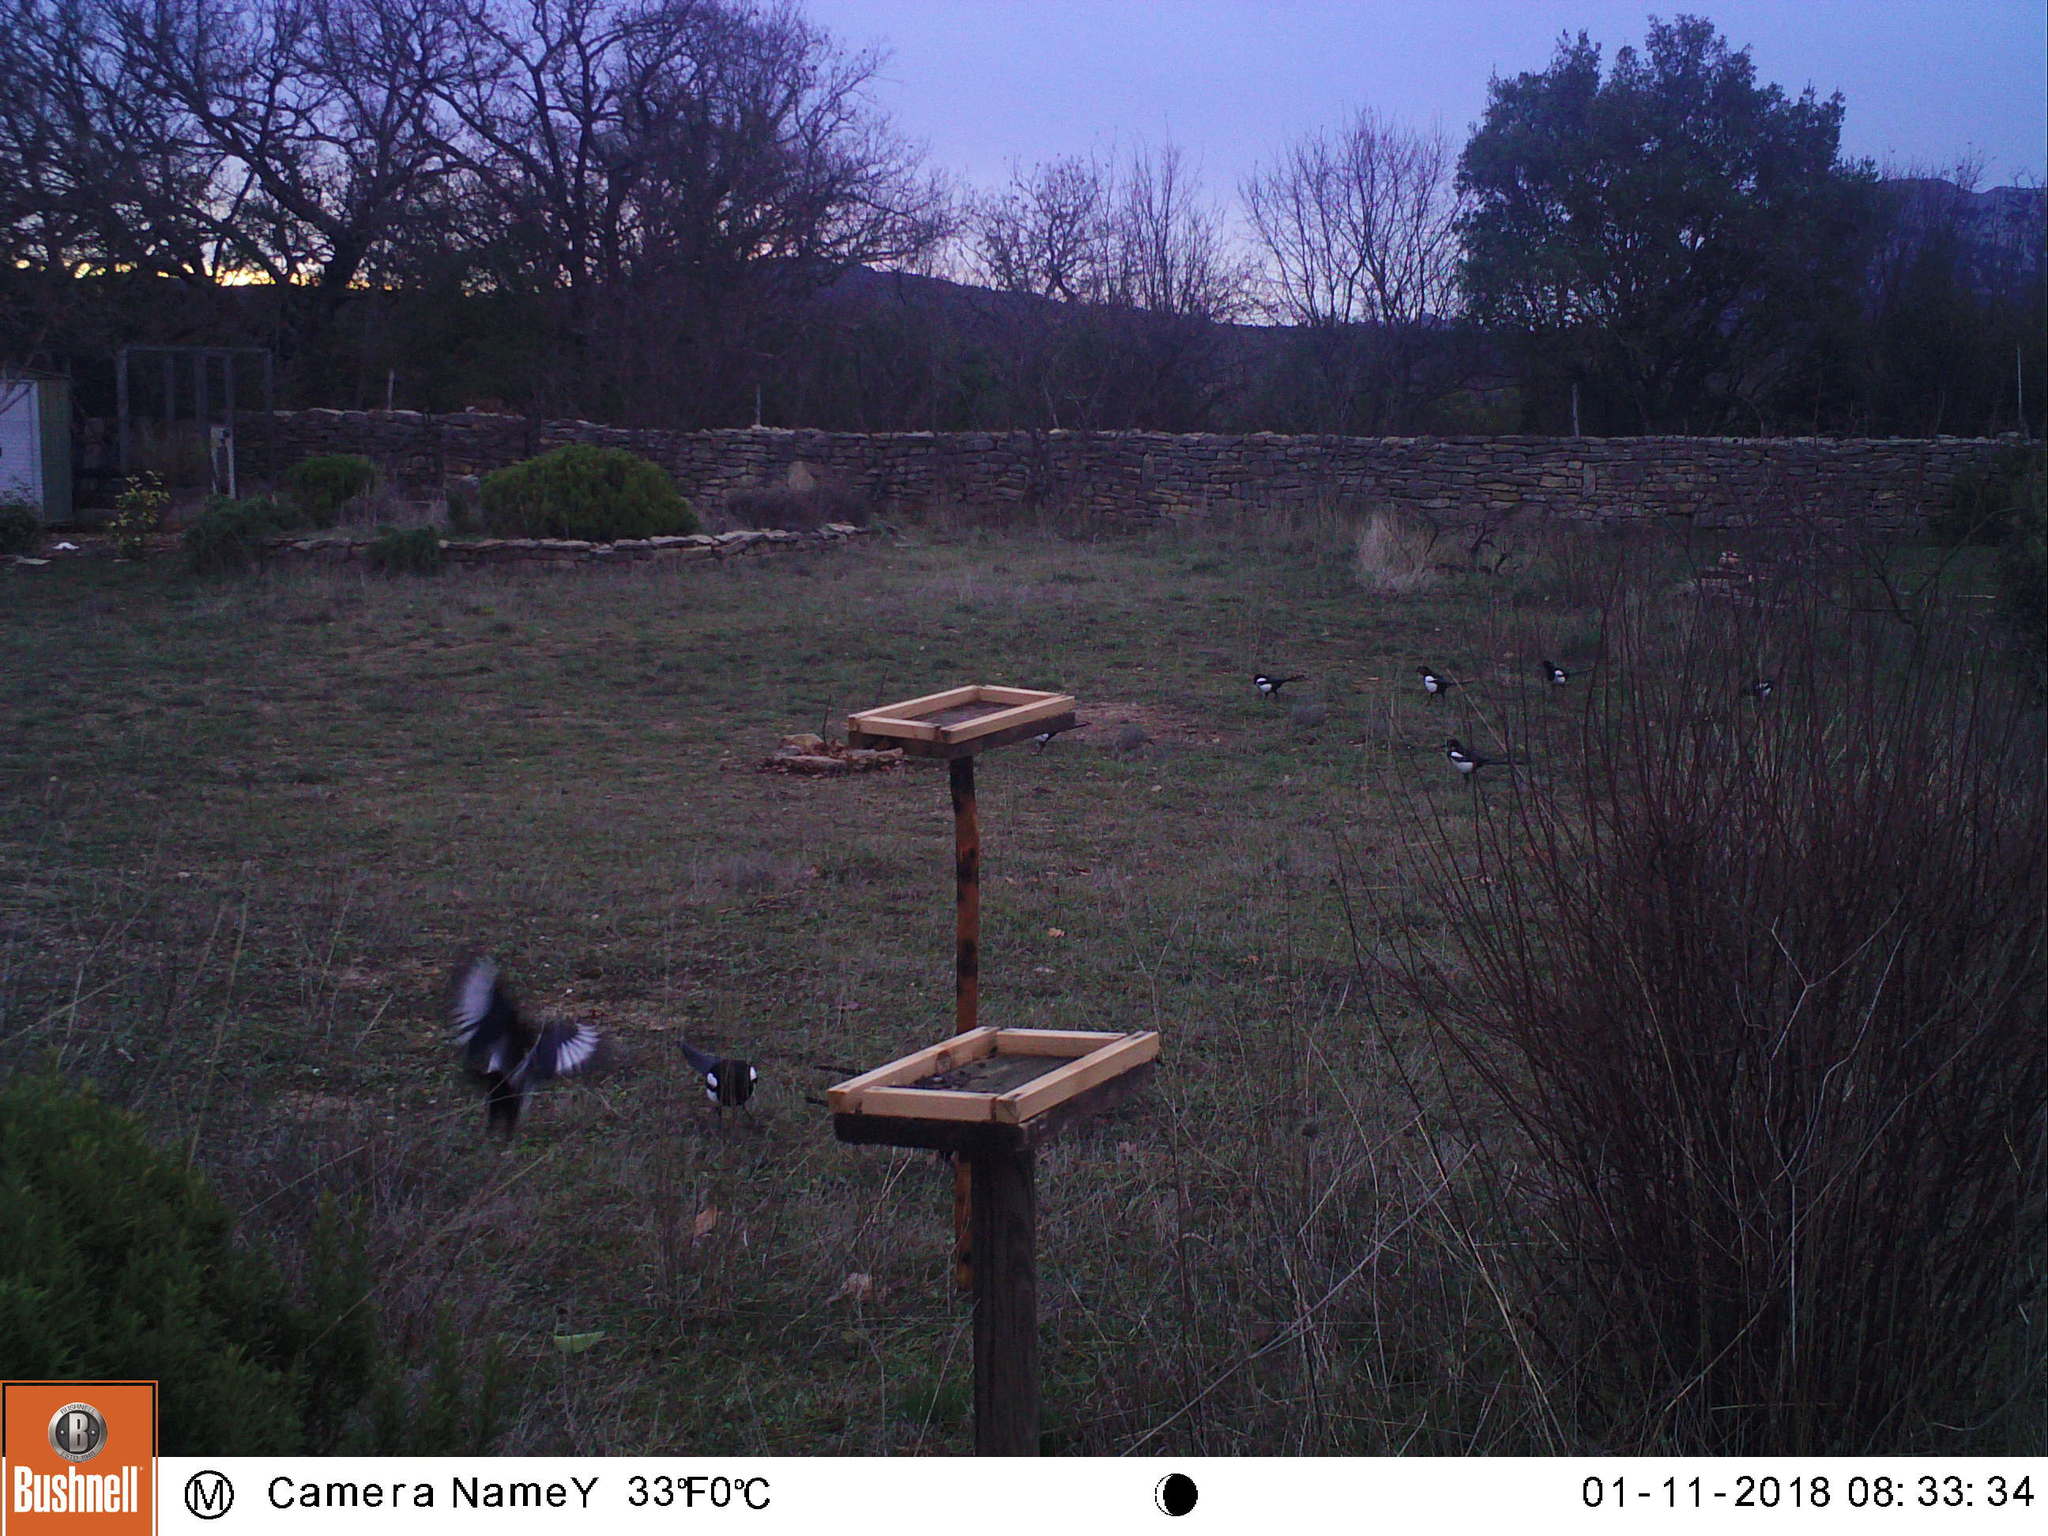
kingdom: Animalia
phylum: Chordata
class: Aves
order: Passeriformes
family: Corvidae
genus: Pica
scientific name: Pica pica
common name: Eurasian magpie
